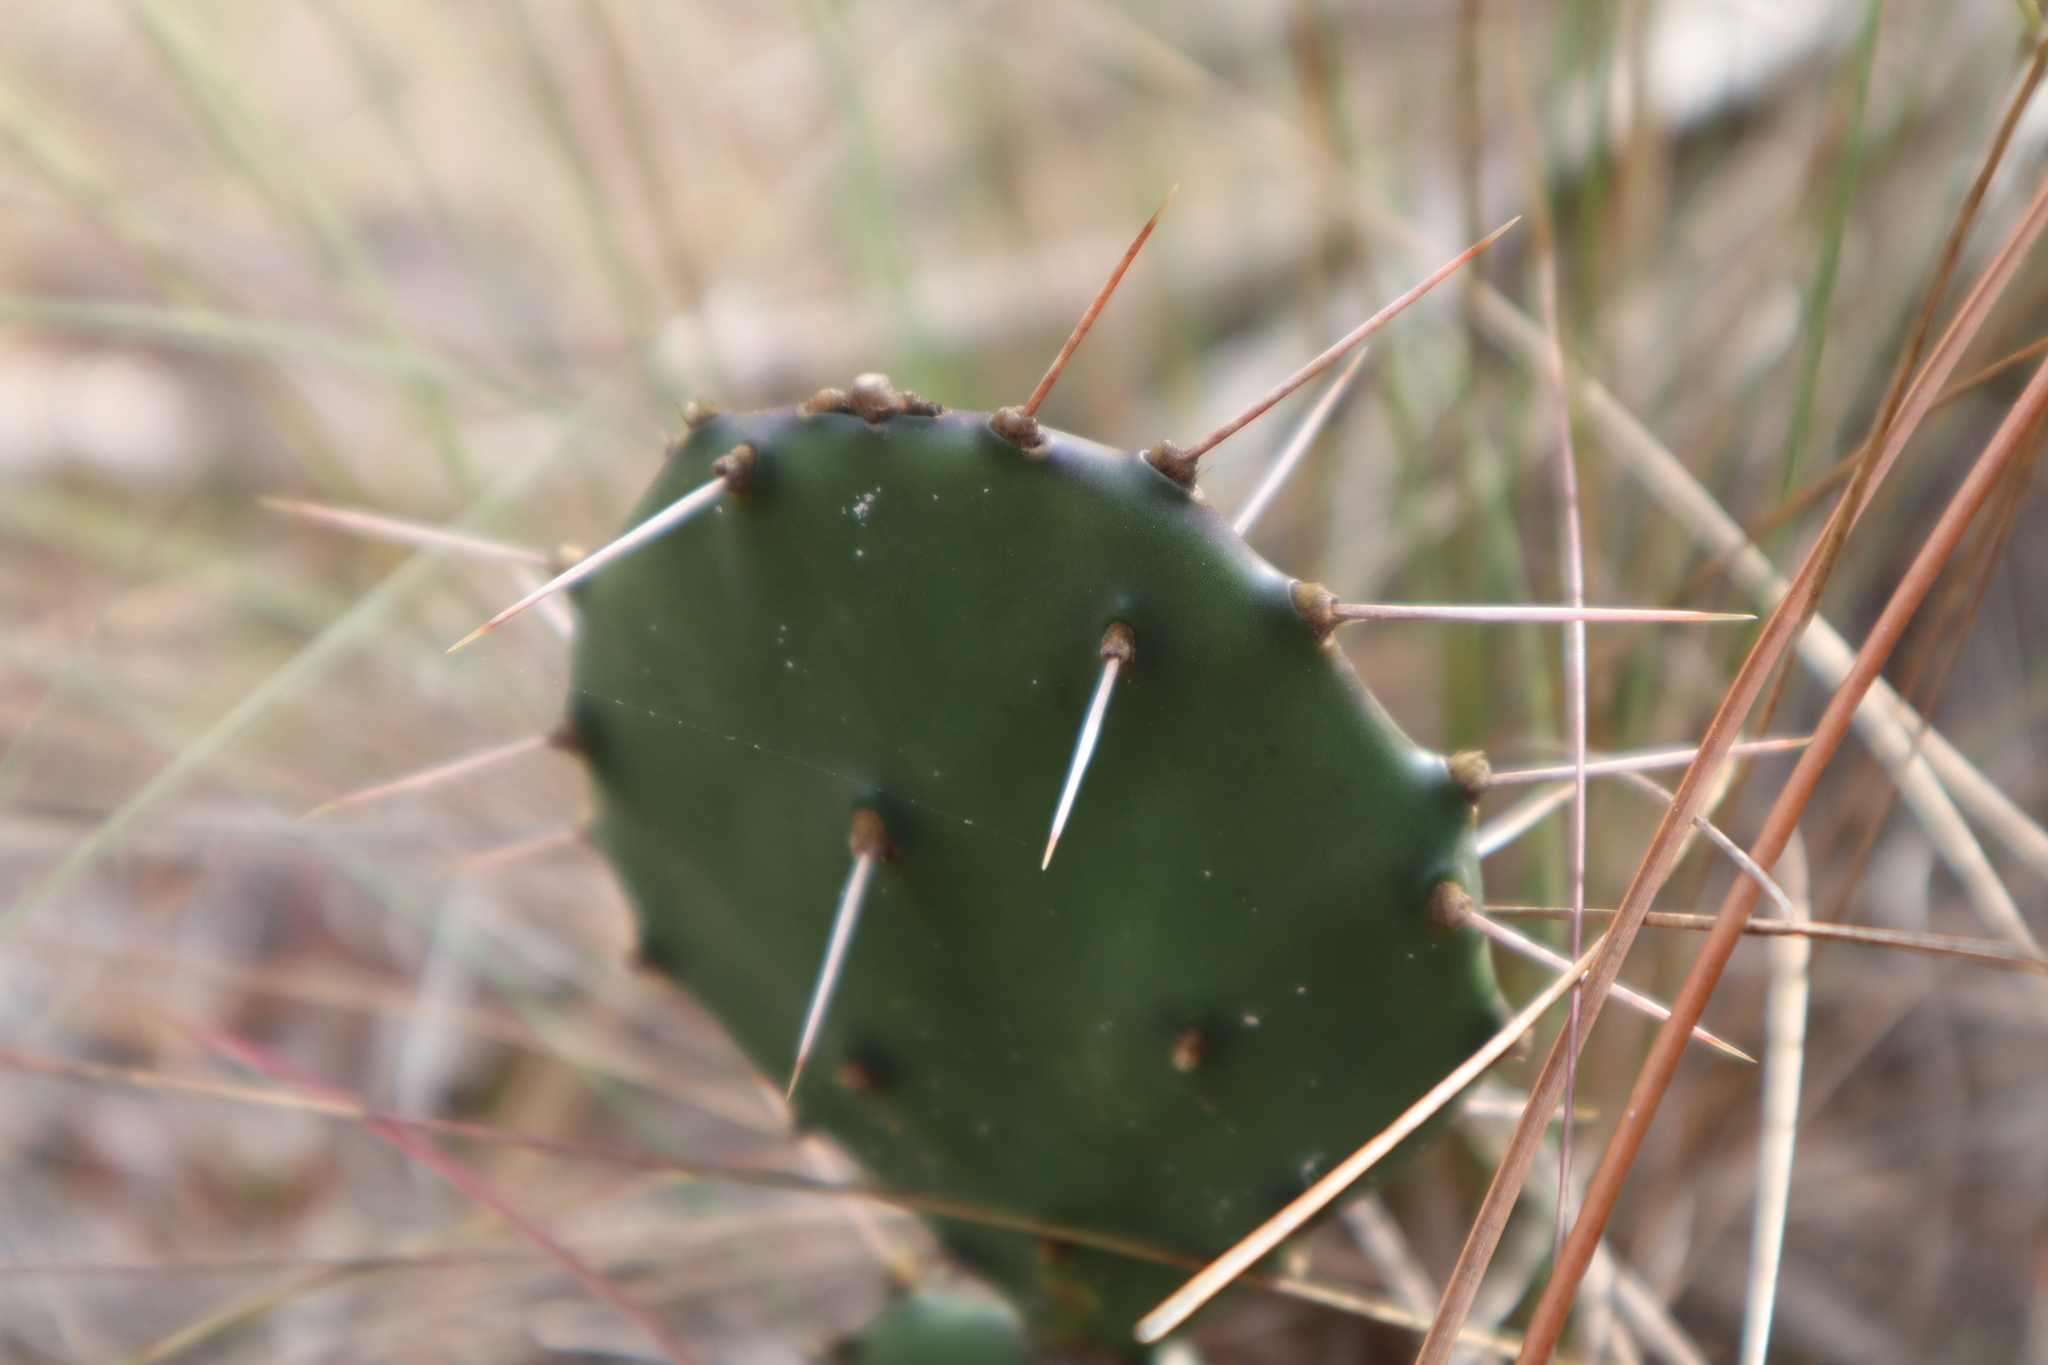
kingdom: Plantae
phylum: Tracheophyta
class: Magnoliopsida
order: Caryophyllales
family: Cactaceae
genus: Opuntia
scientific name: Opuntia austrina
